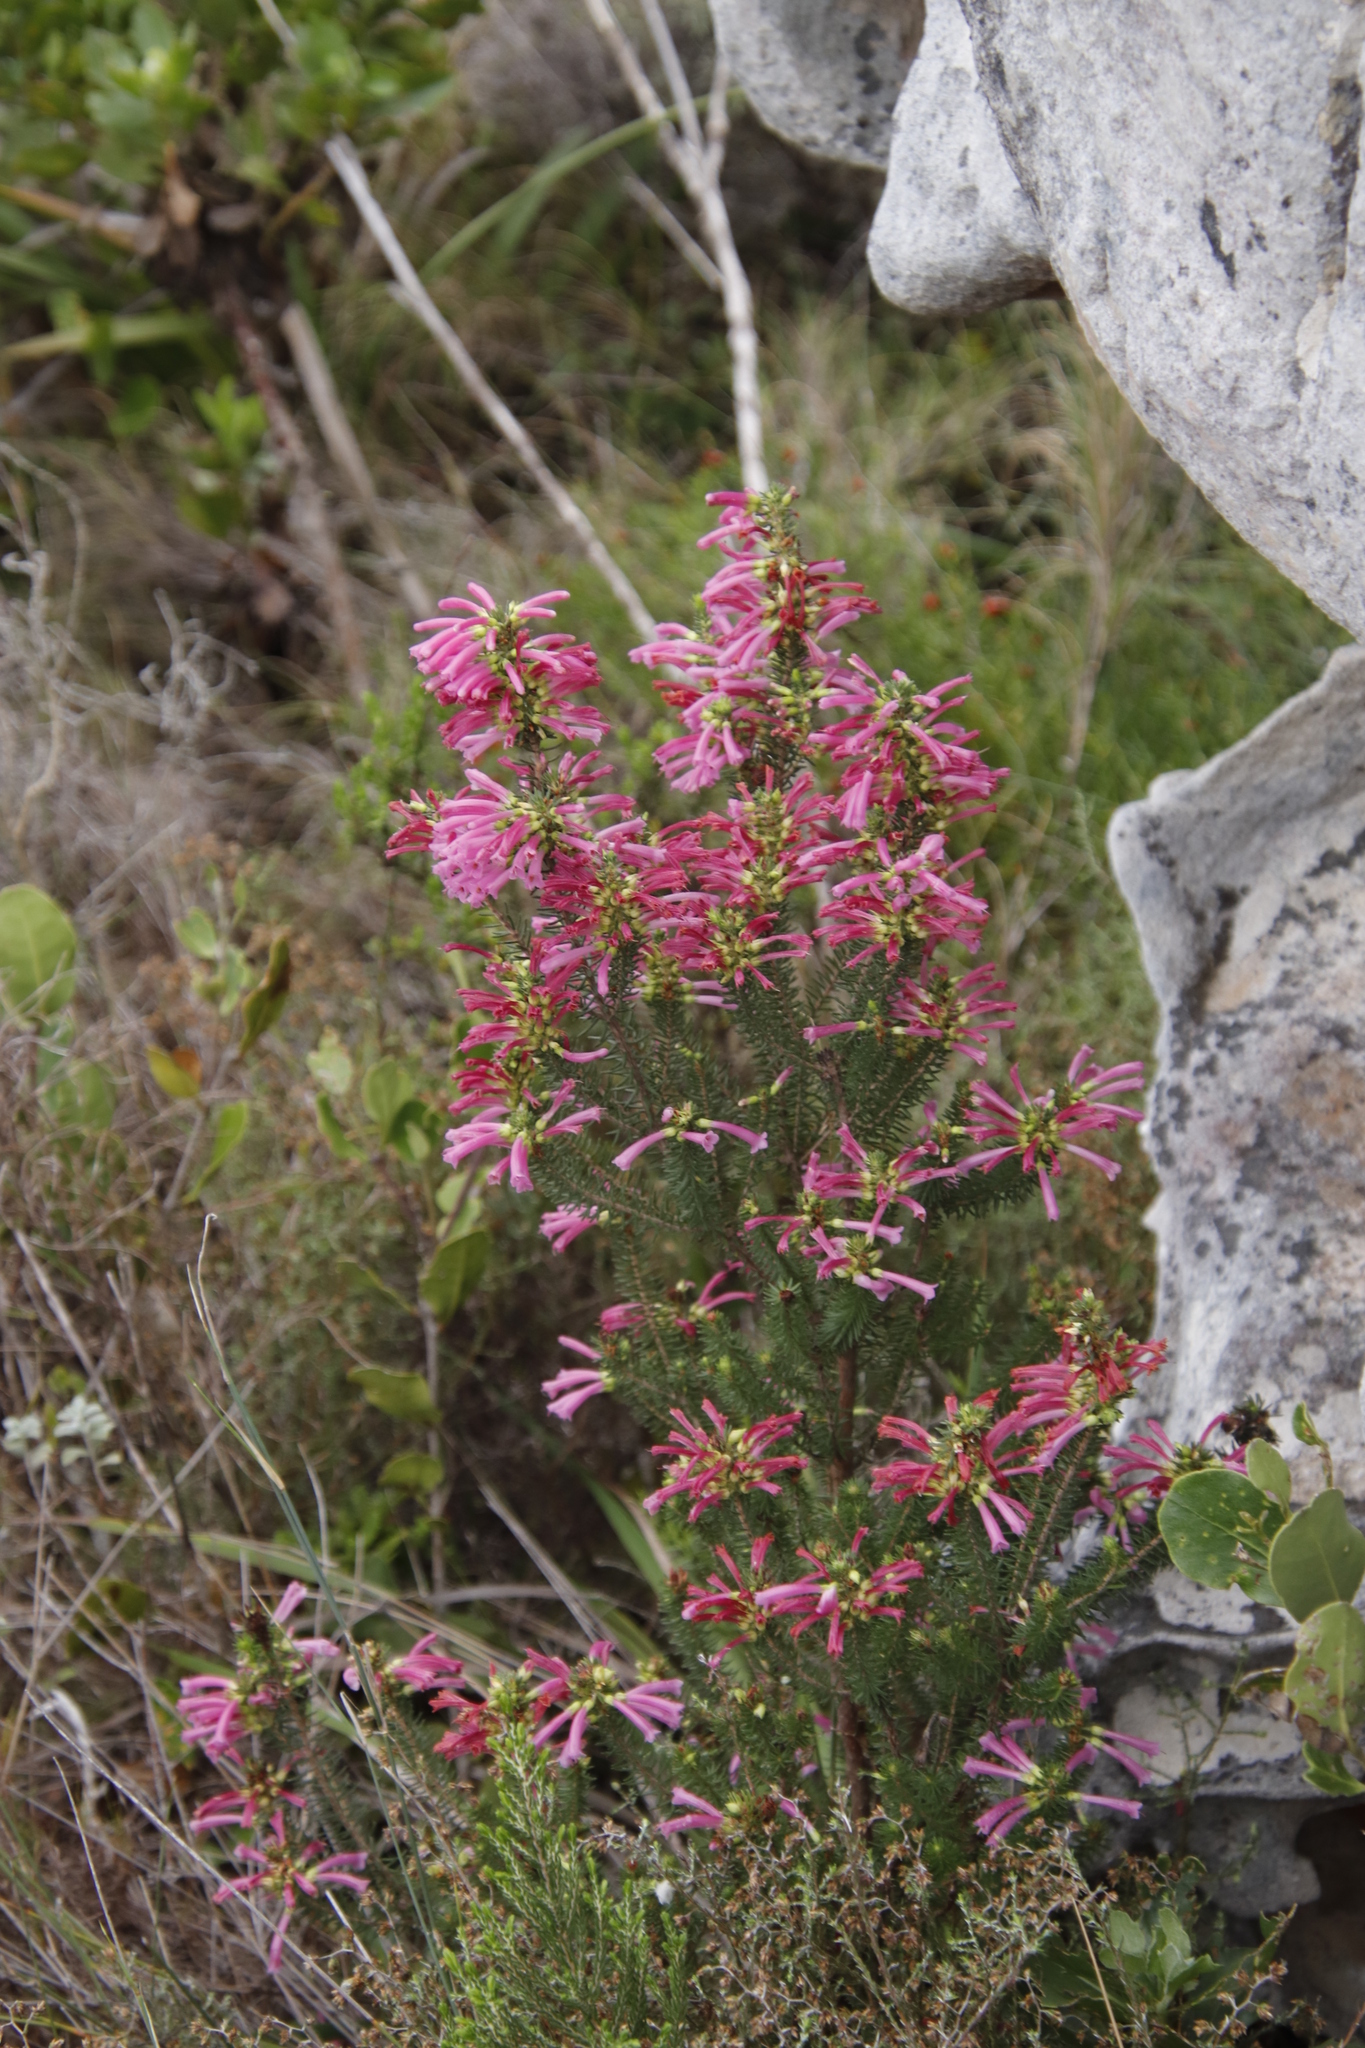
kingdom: Plantae
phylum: Tracheophyta
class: Magnoliopsida
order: Ericales
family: Ericaceae
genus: Erica
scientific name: Erica abietina
